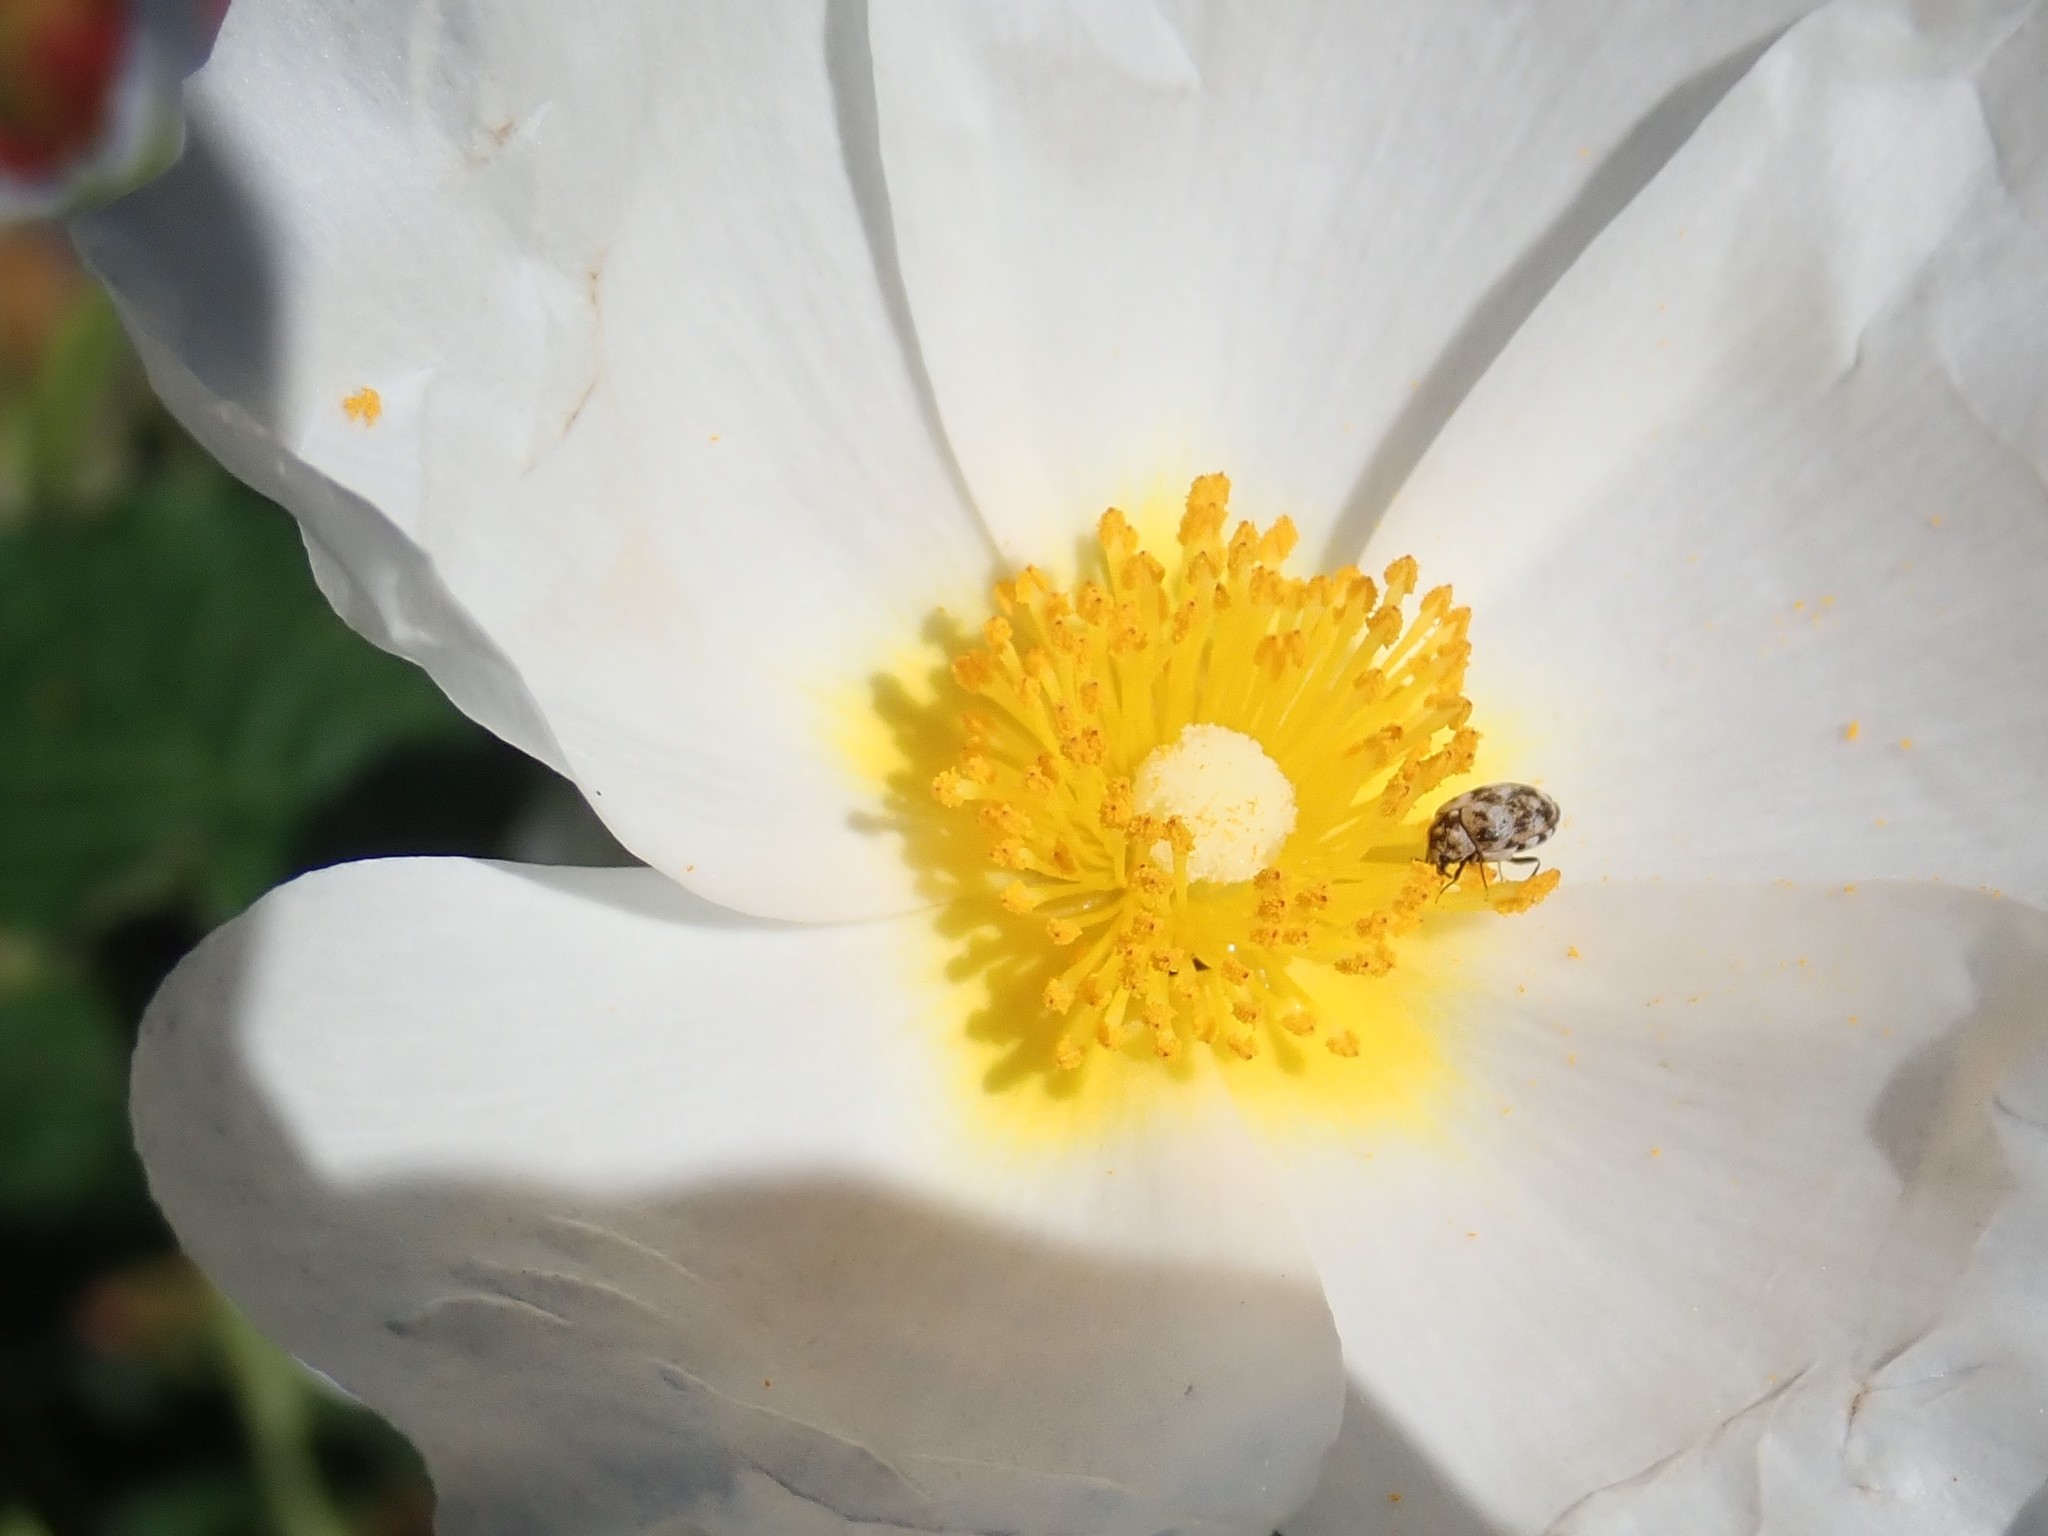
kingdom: Animalia
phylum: Arthropoda
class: Insecta
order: Coleoptera
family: Dermestidae
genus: Anthrenus
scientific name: Anthrenus verbasci
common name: Varied carpet beetle
